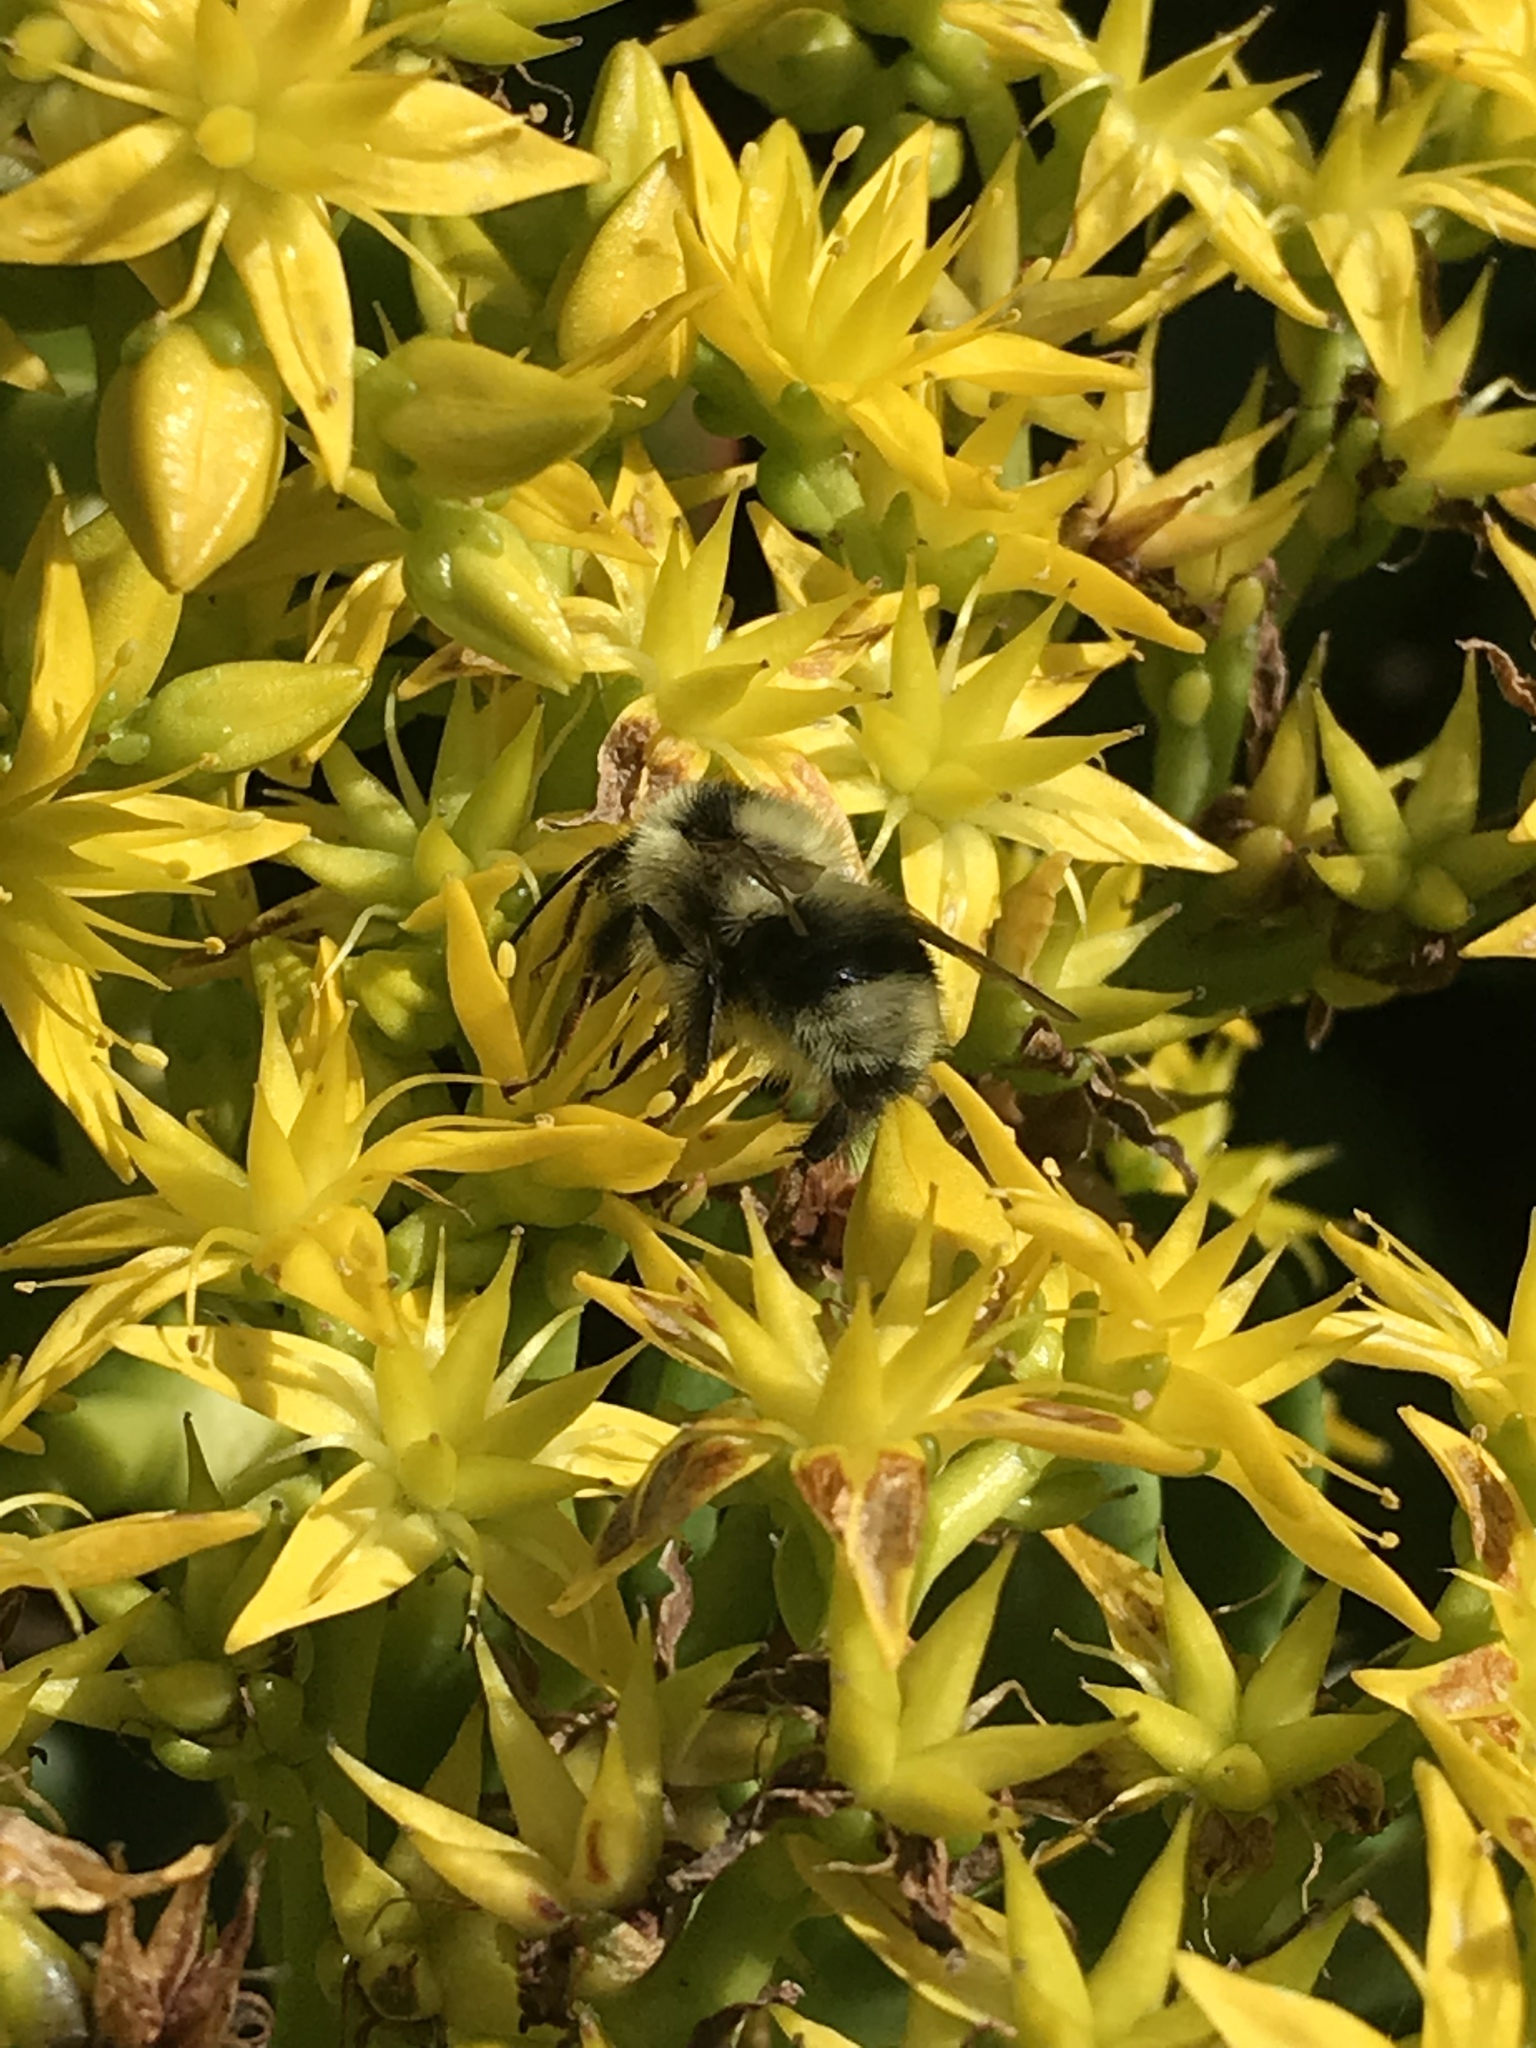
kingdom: Animalia
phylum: Arthropoda
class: Insecta
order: Hymenoptera
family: Apidae
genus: Bombus
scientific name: Bombus melanopygus
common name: Black tail bumble bee
